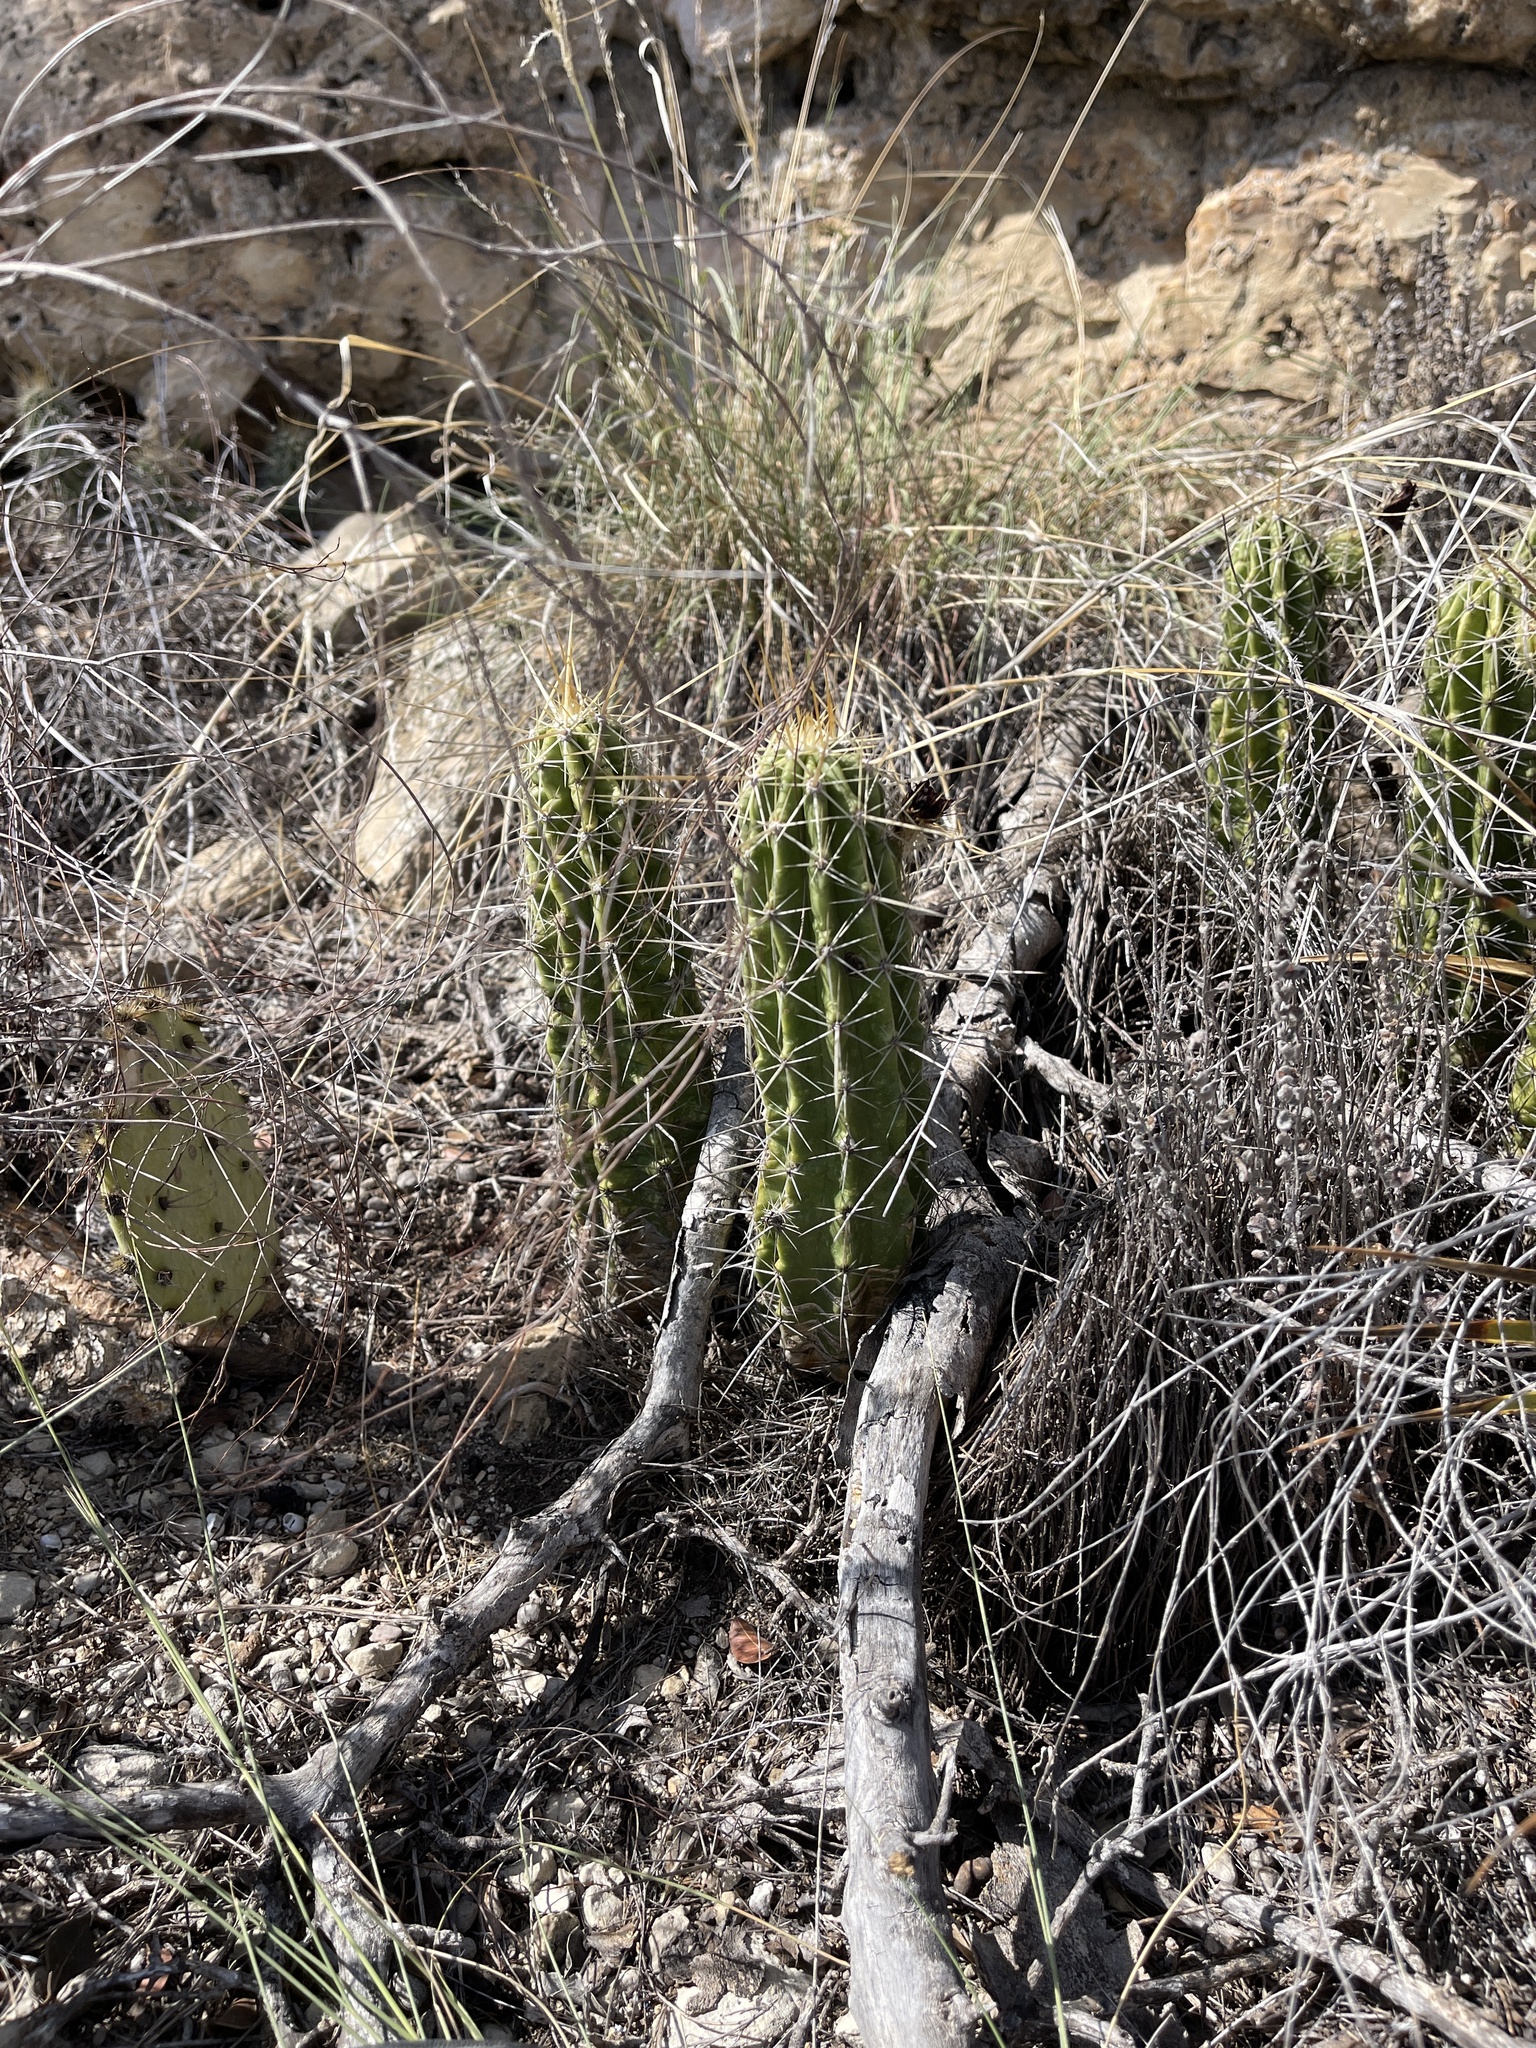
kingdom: Plantae
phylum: Tracheophyta
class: Magnoliopsida
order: Caryophyllales
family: Cactaceae
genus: Echinocereus
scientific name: Echinocereus enneacanthus
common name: Pitaya
